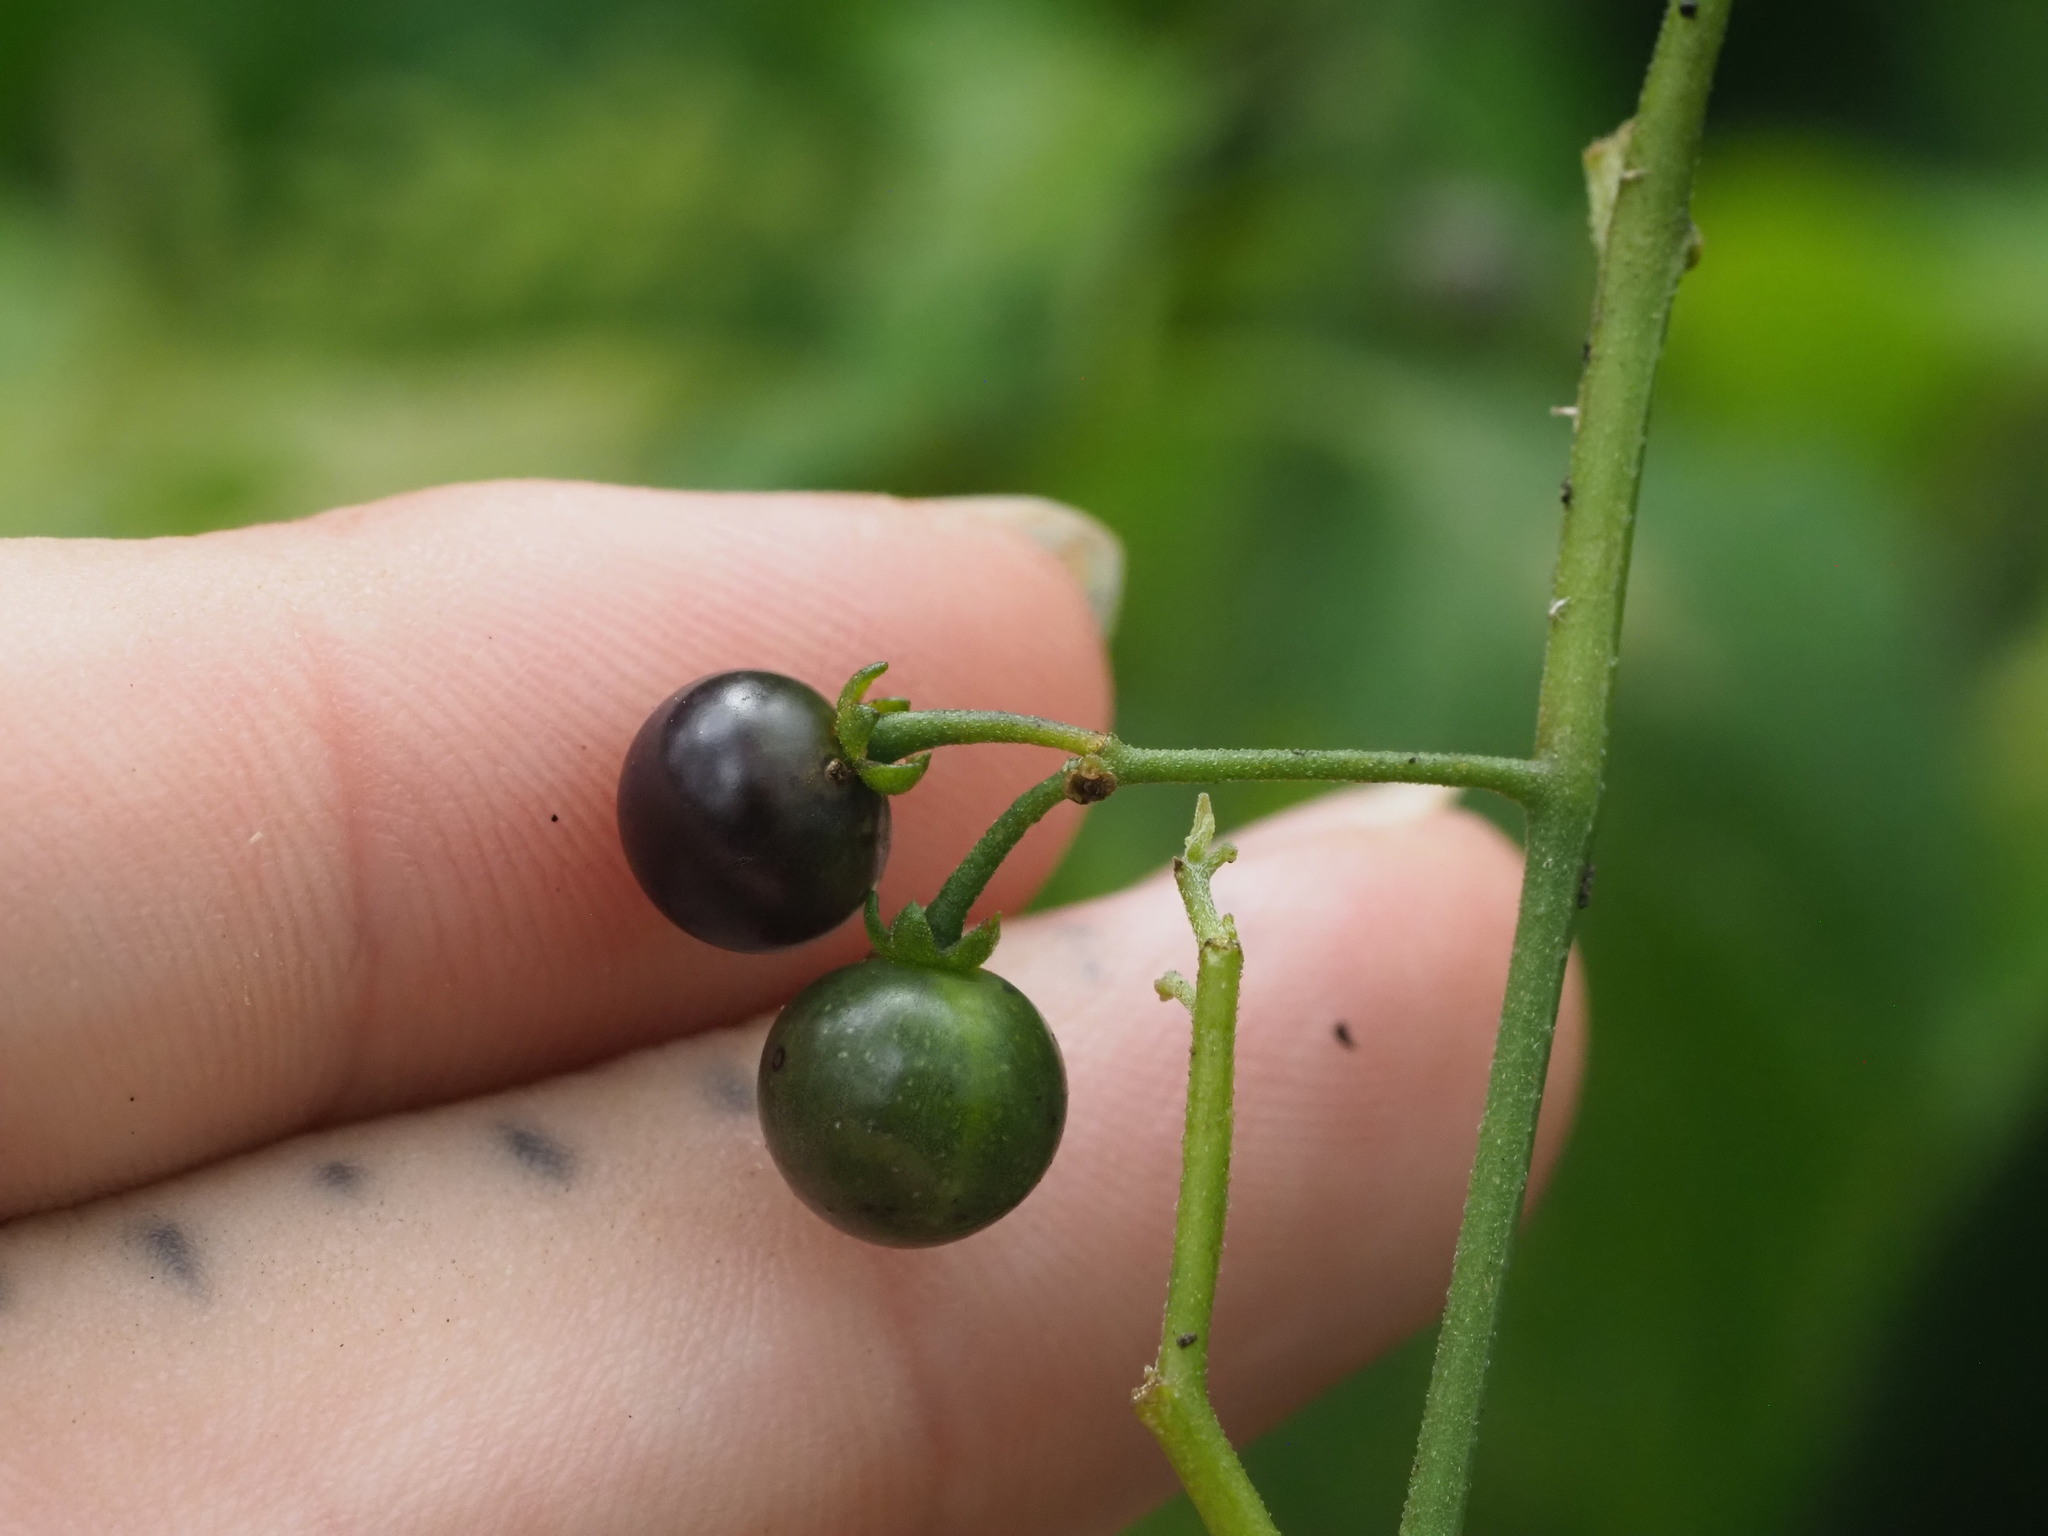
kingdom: Plantae
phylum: Tracheophyta
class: Magnoliopsida
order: Solanales
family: Solanaceae
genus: Solanum
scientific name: Solanum americanum
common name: American black nightshade
